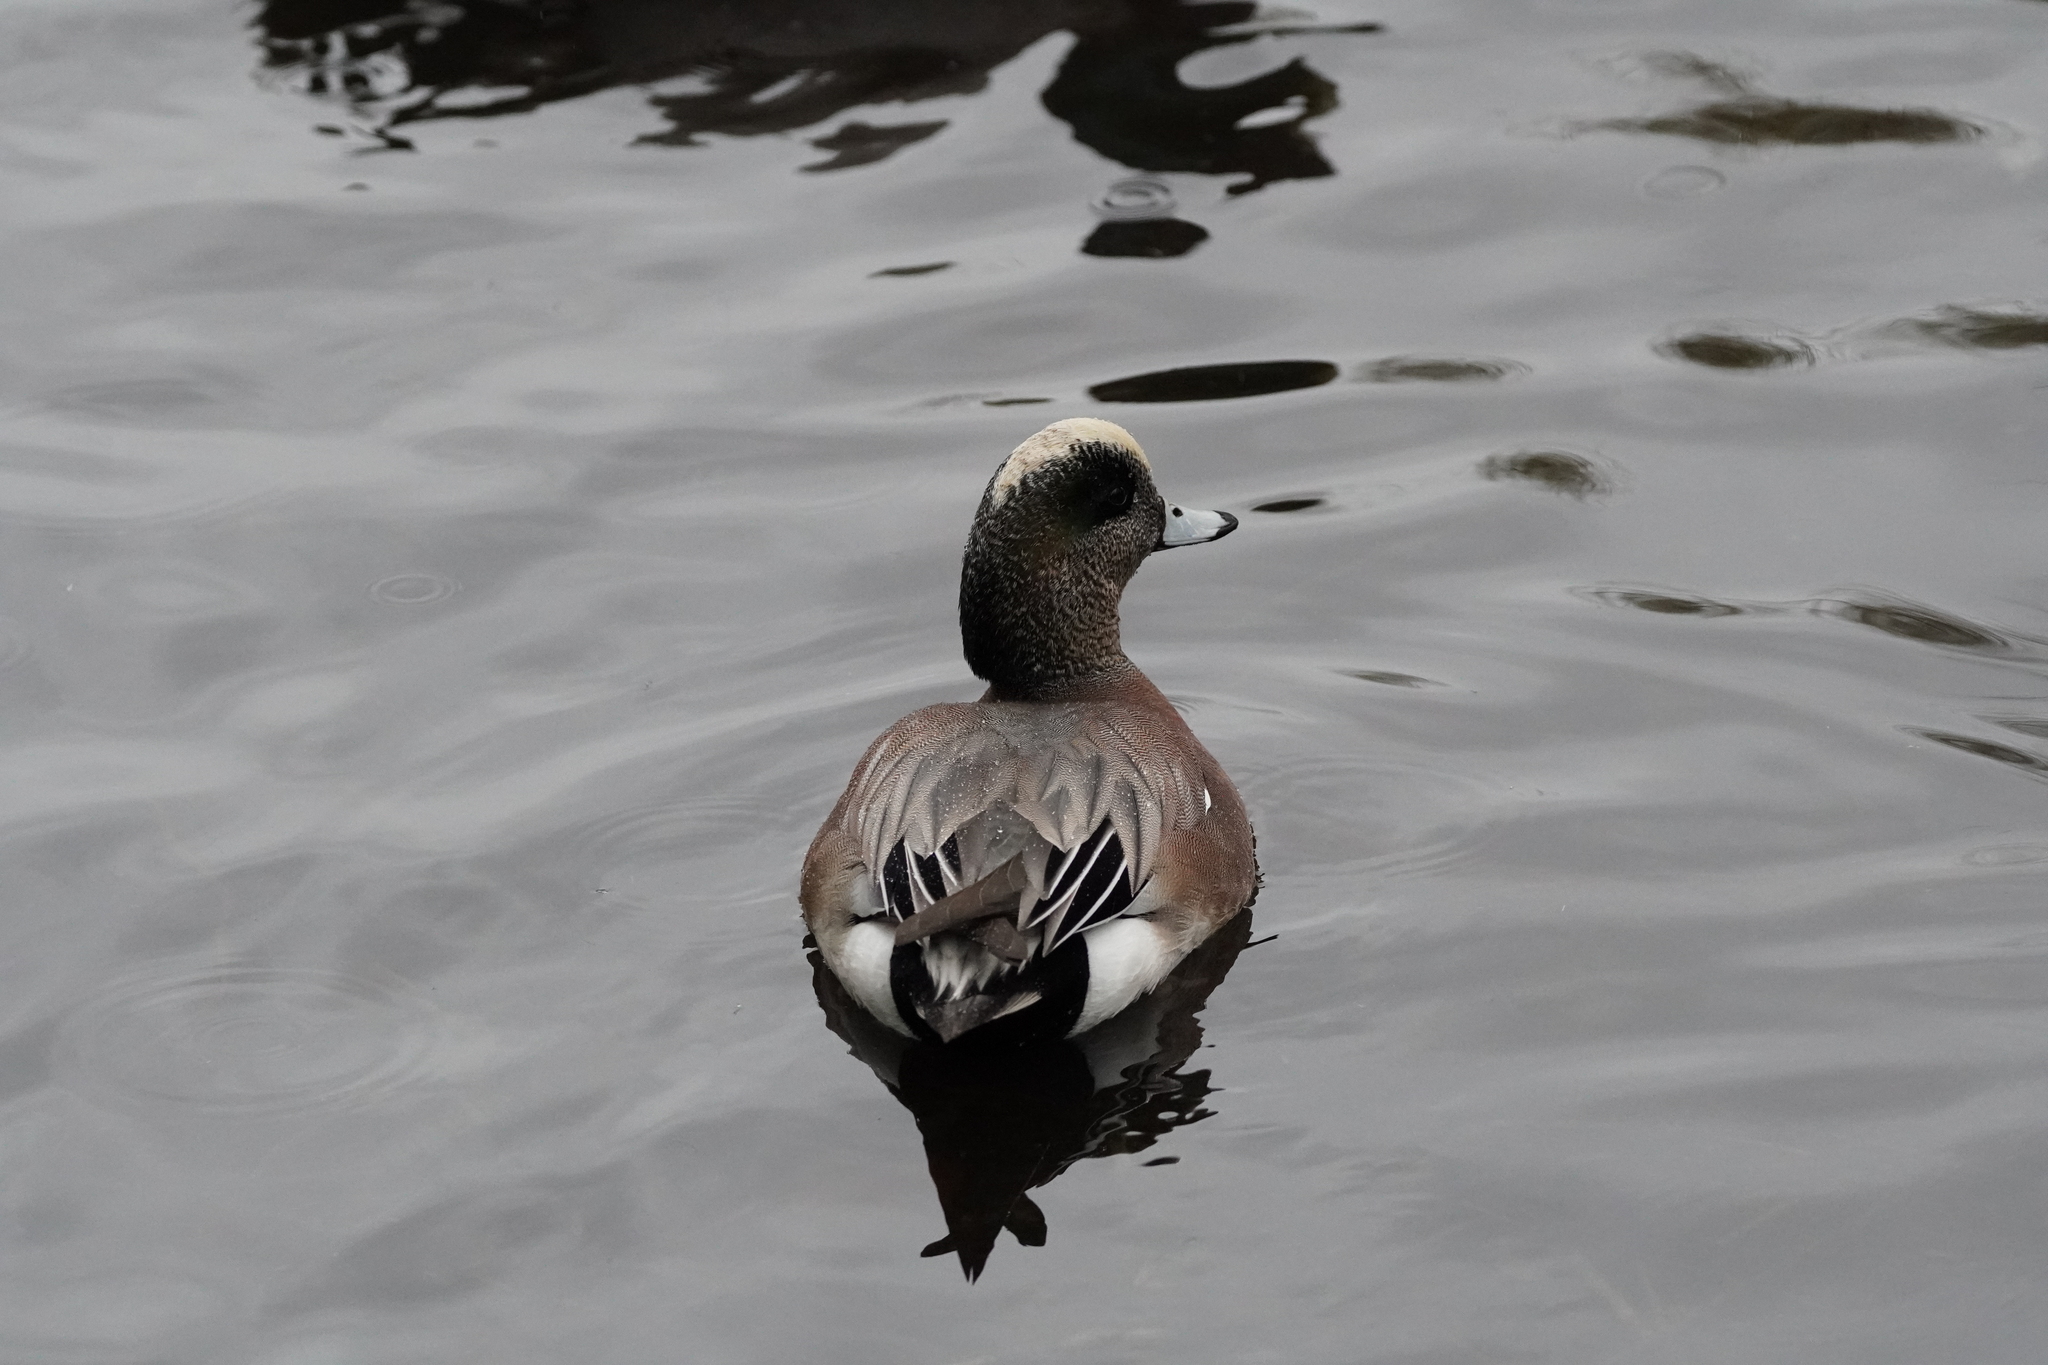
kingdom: Animalia
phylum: Chordata
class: Aves
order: Anseriformes
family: Anatidae
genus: Mareca
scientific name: Mareca americana
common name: American wigeon
